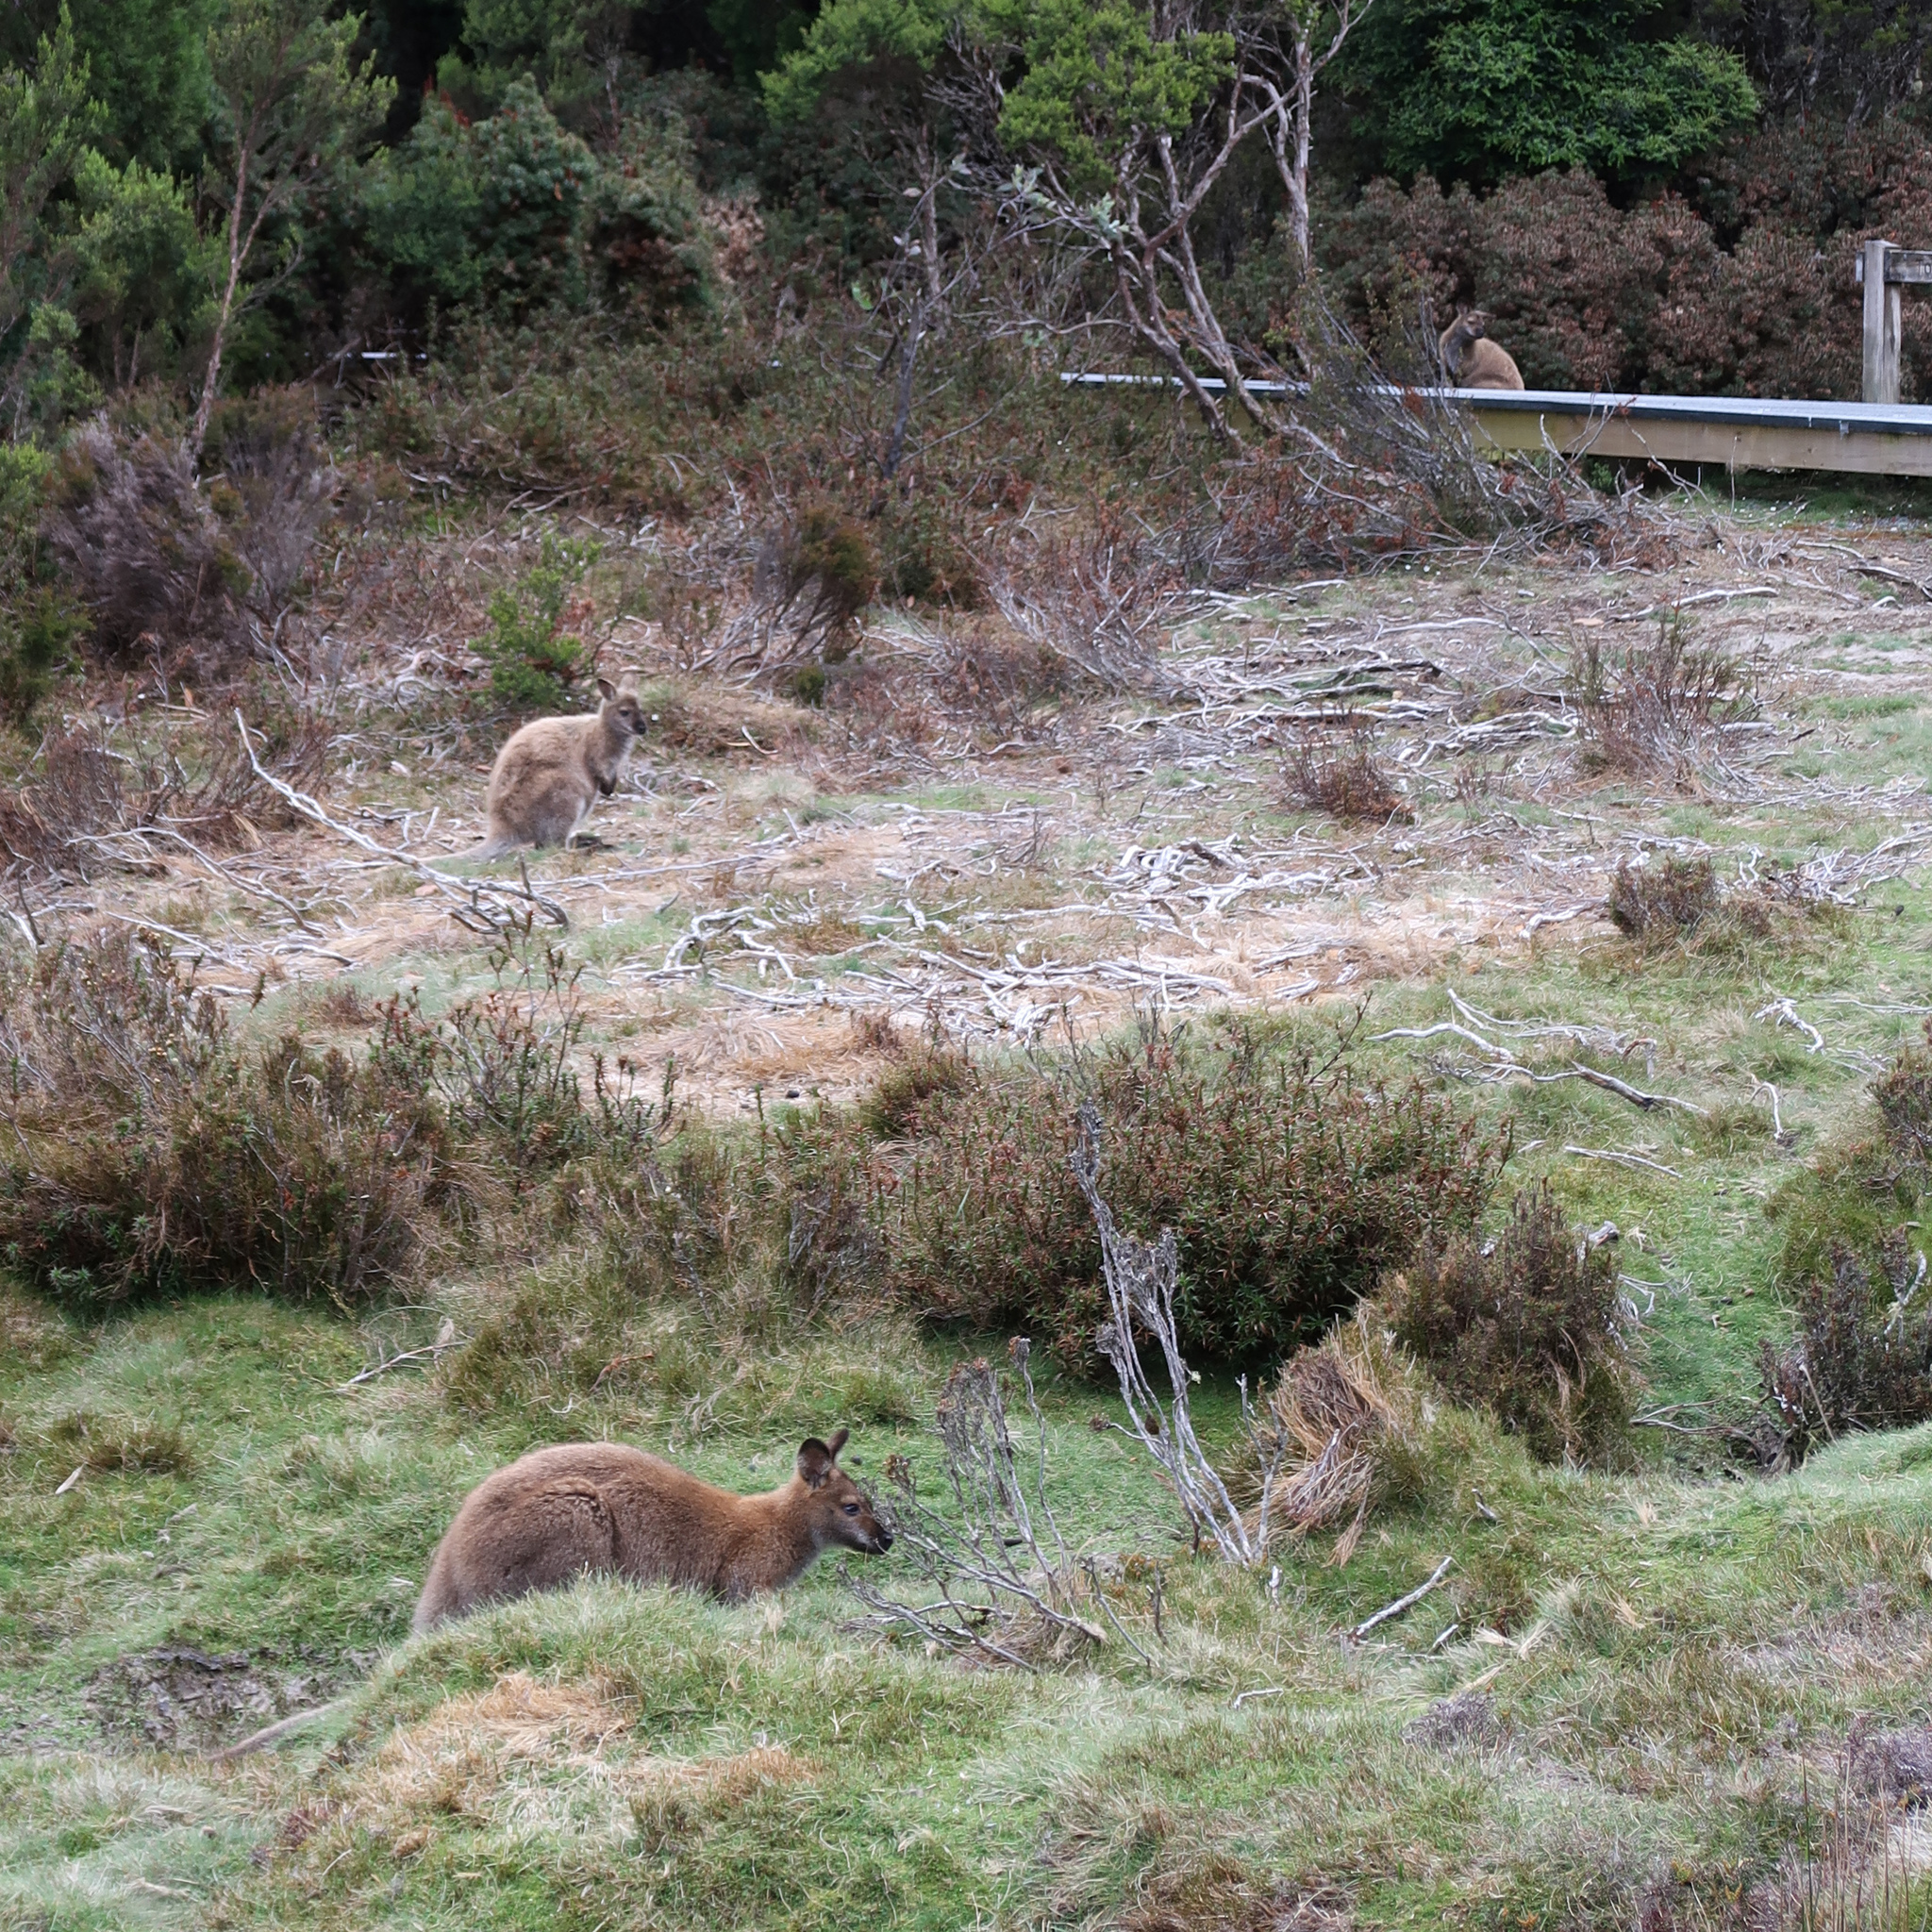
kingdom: Animalia
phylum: Chordata
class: Mammalia
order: Diprotodontia
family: Macropodidae
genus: Notamacropus
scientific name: Notamacropus rufogriseus
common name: Red-necked wallaby
